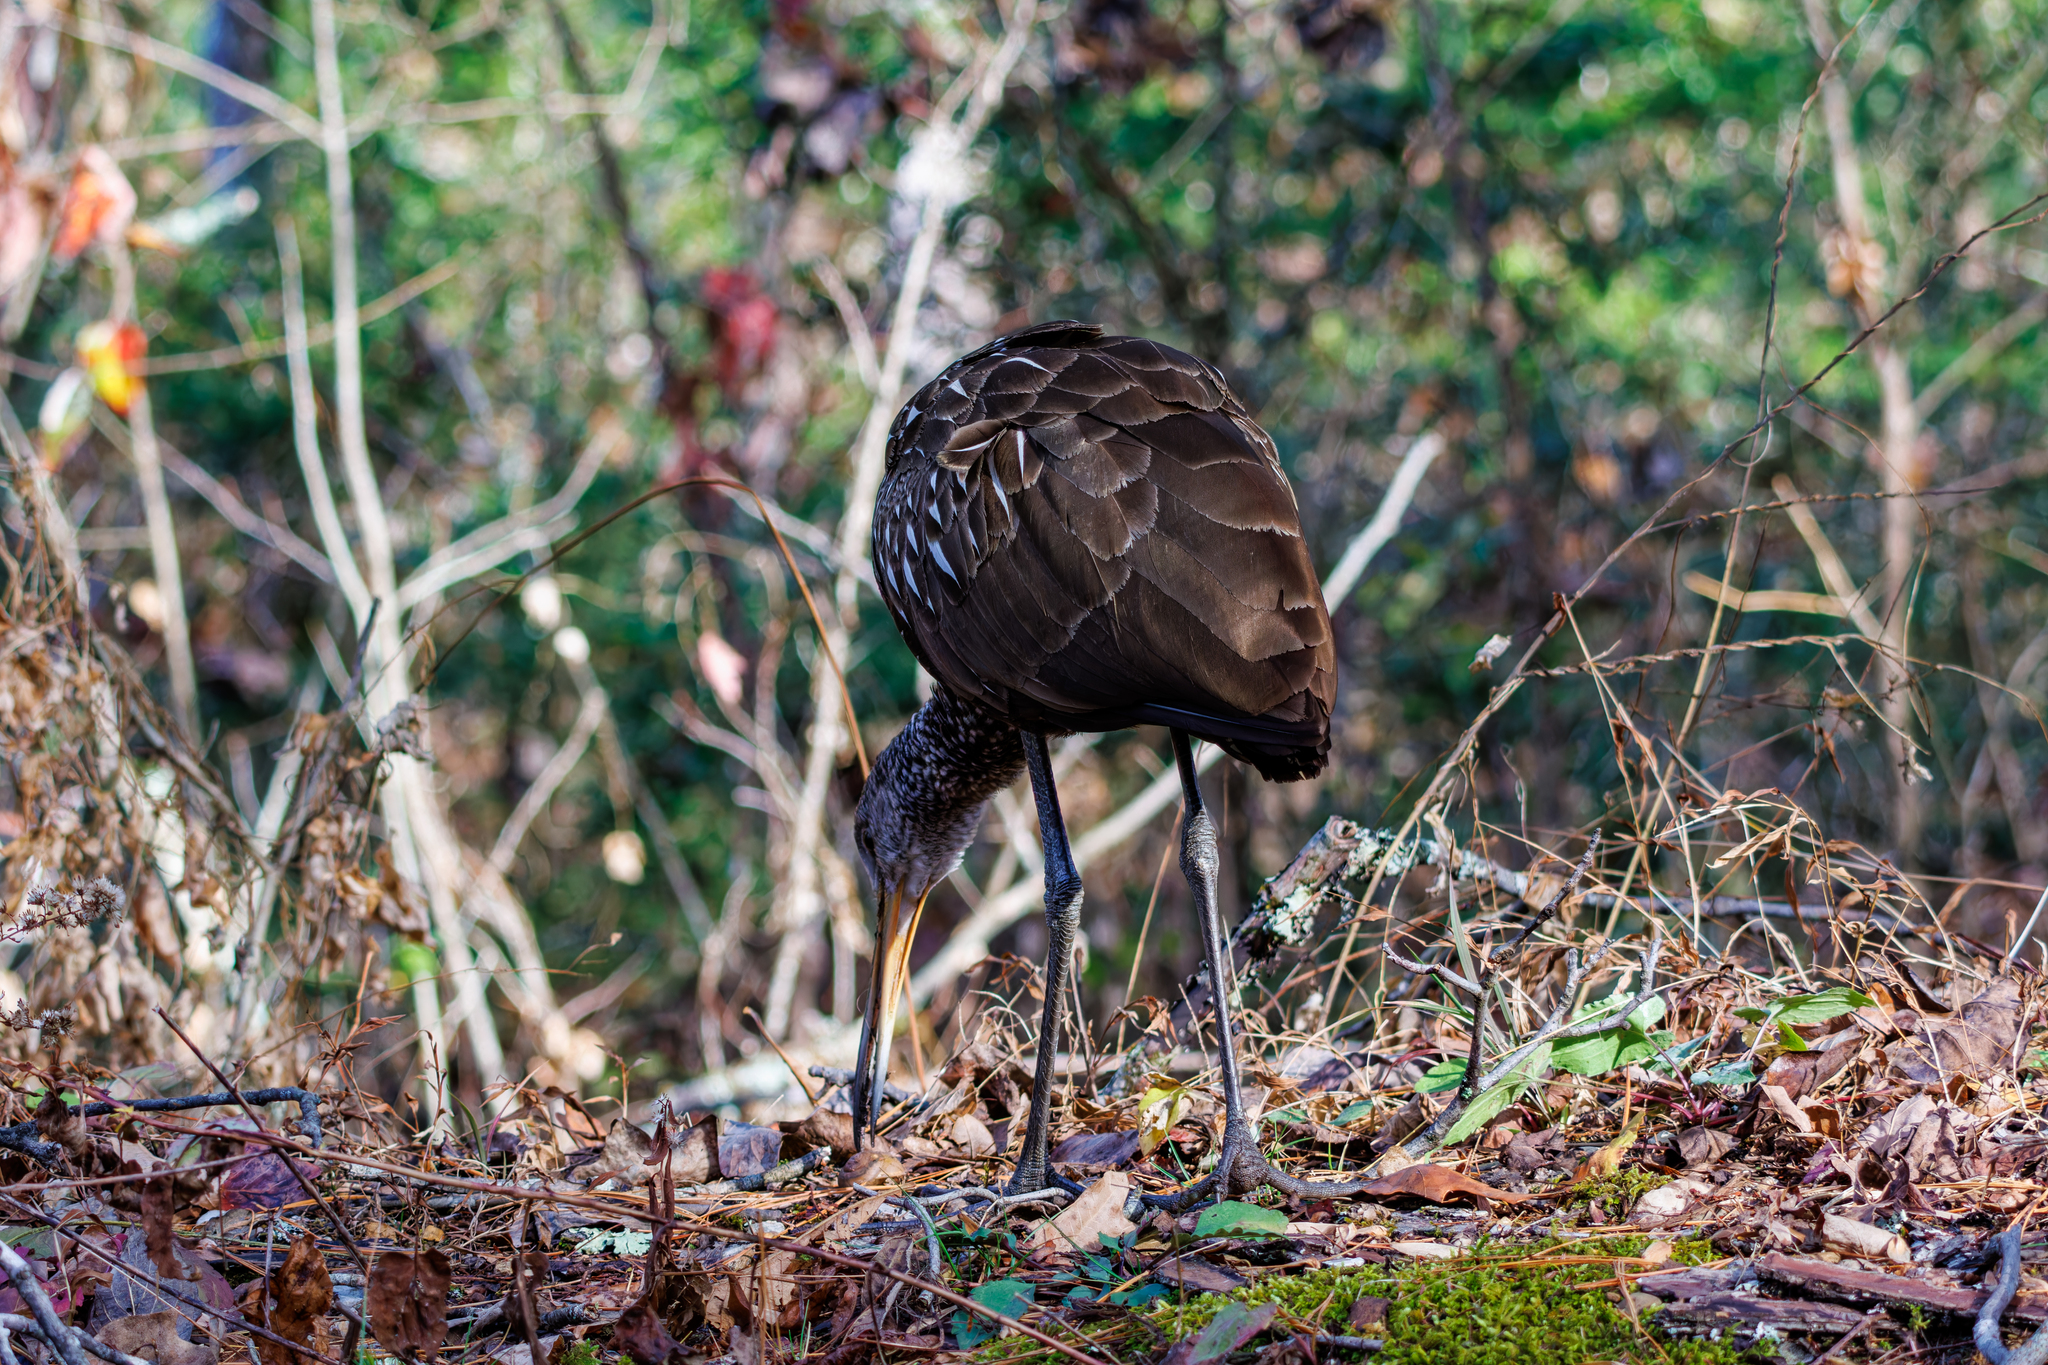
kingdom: Animalia
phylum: Chordata
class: Aves
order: Gruiformes
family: Aramidae
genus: Aramus
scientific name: Aramus guarauna
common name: Limpkin
